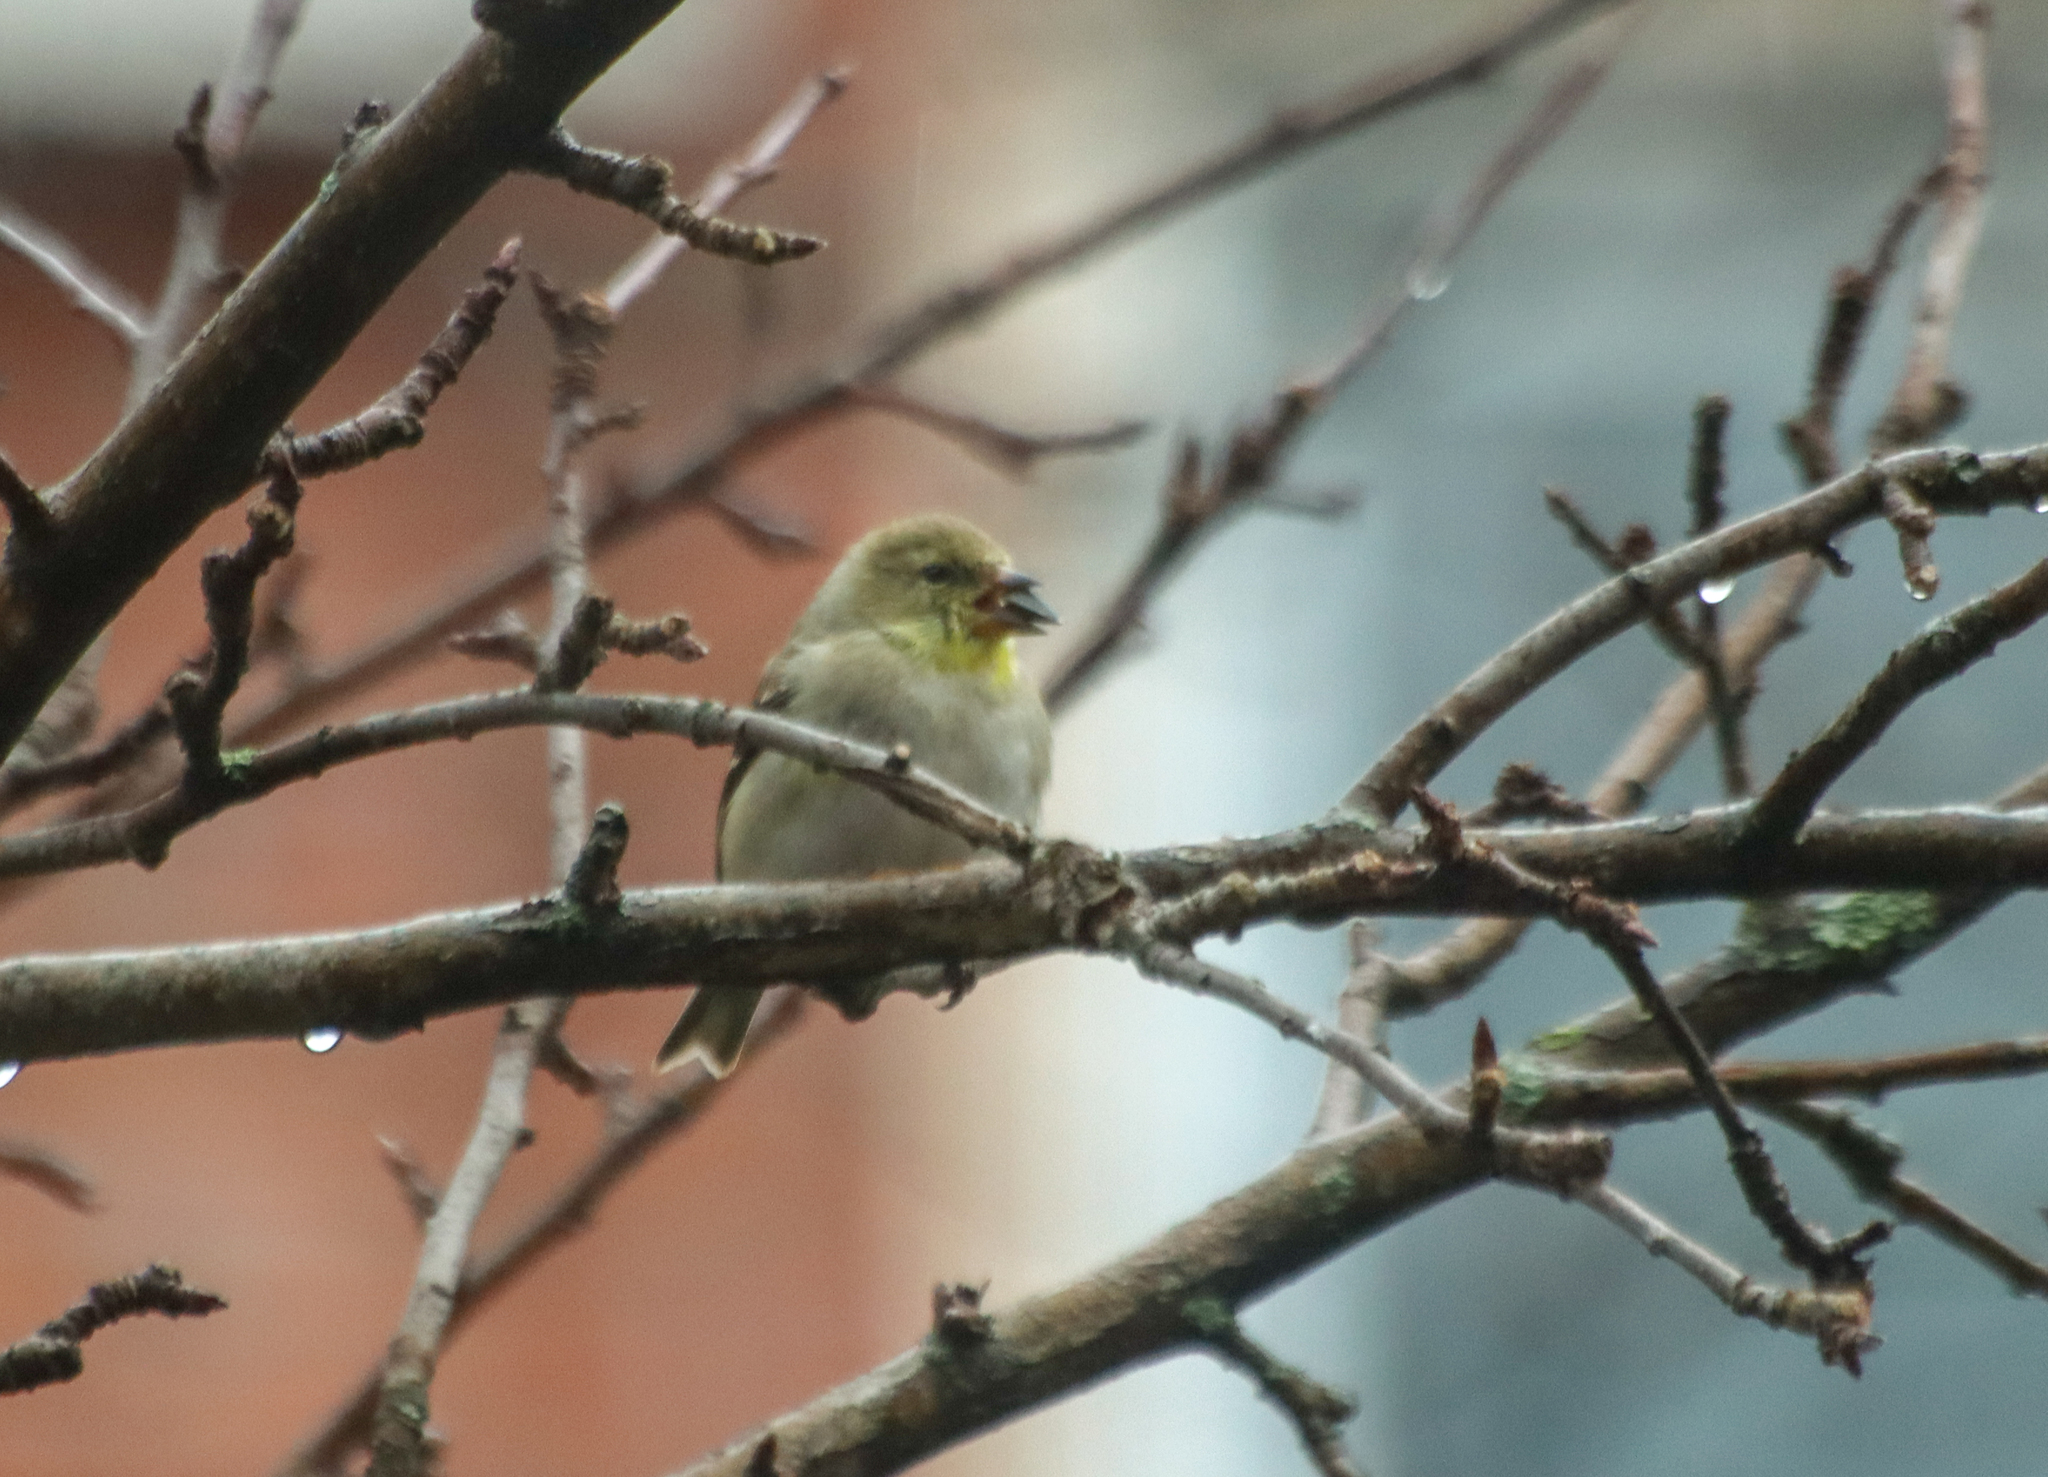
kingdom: Animalia
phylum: Chordata
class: Aves
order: Passeriformes
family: Fringillidae
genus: Spinus
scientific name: Spinus tristis
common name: American goldfinch
